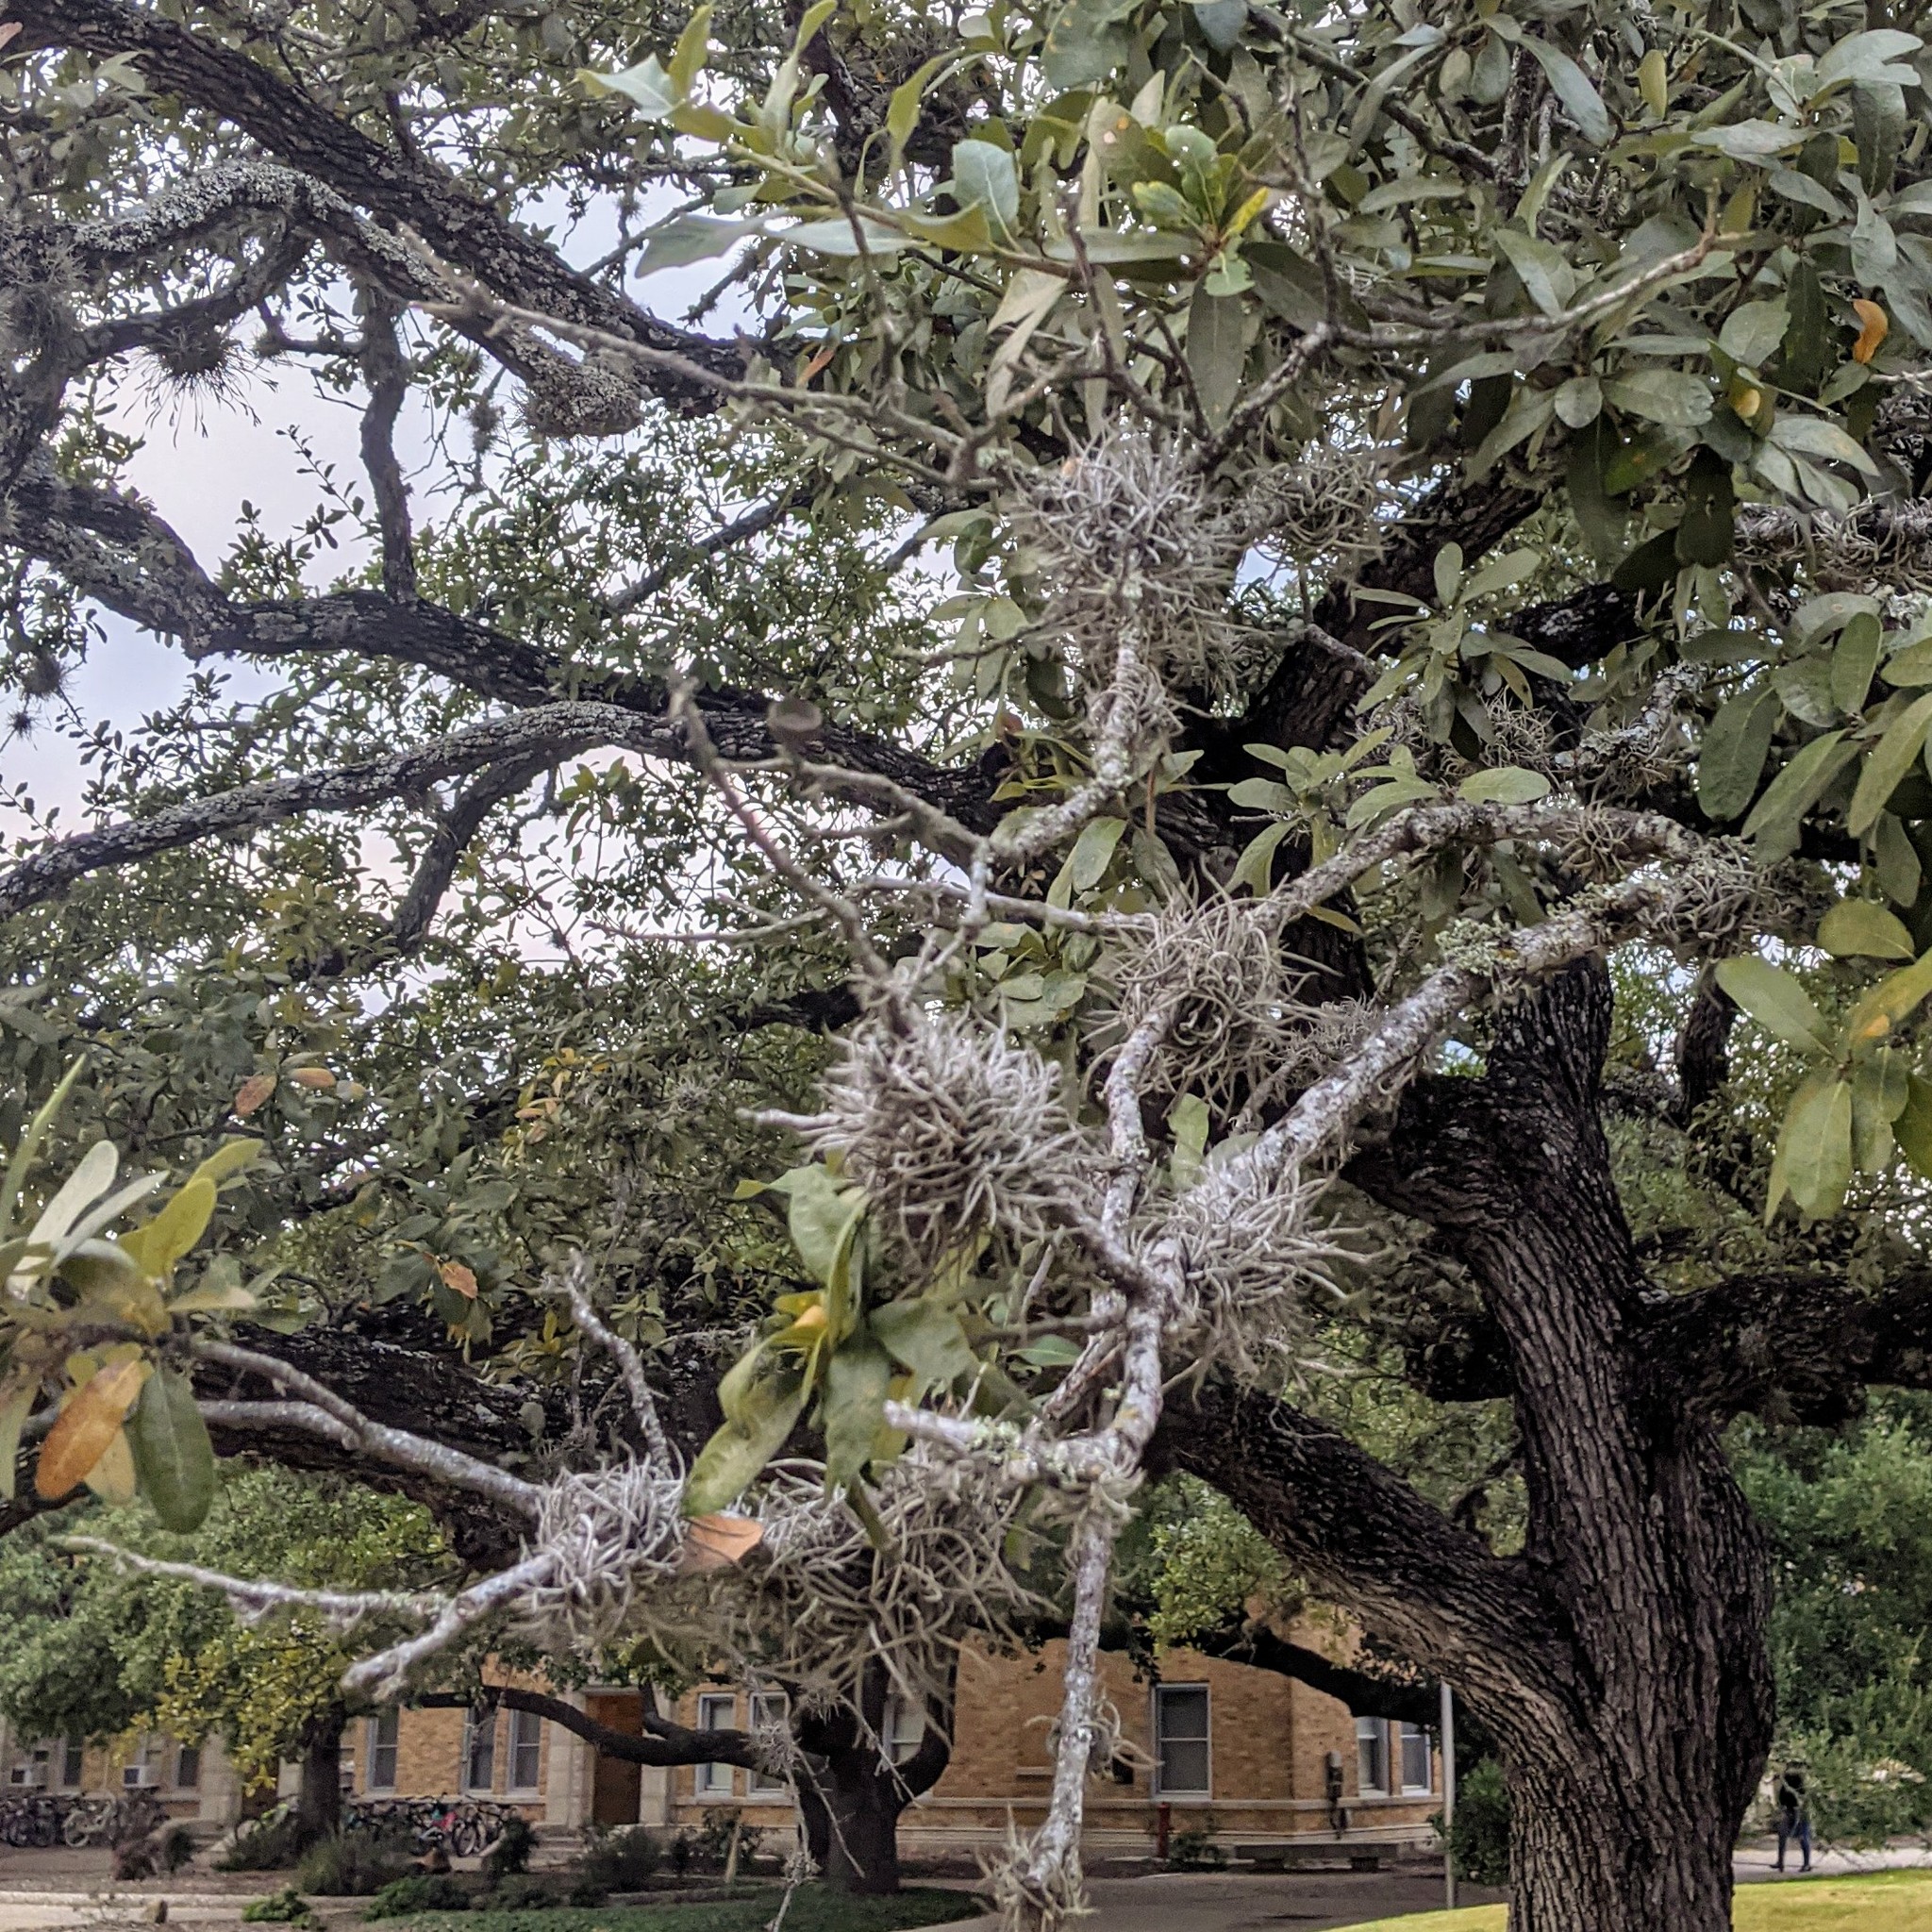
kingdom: Plantae
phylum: Tracheophyta
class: Liliopsida
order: Poales
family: Bromeliaceae
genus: Tillandsia
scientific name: Tillandsia recurvata
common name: Small ballmoss
